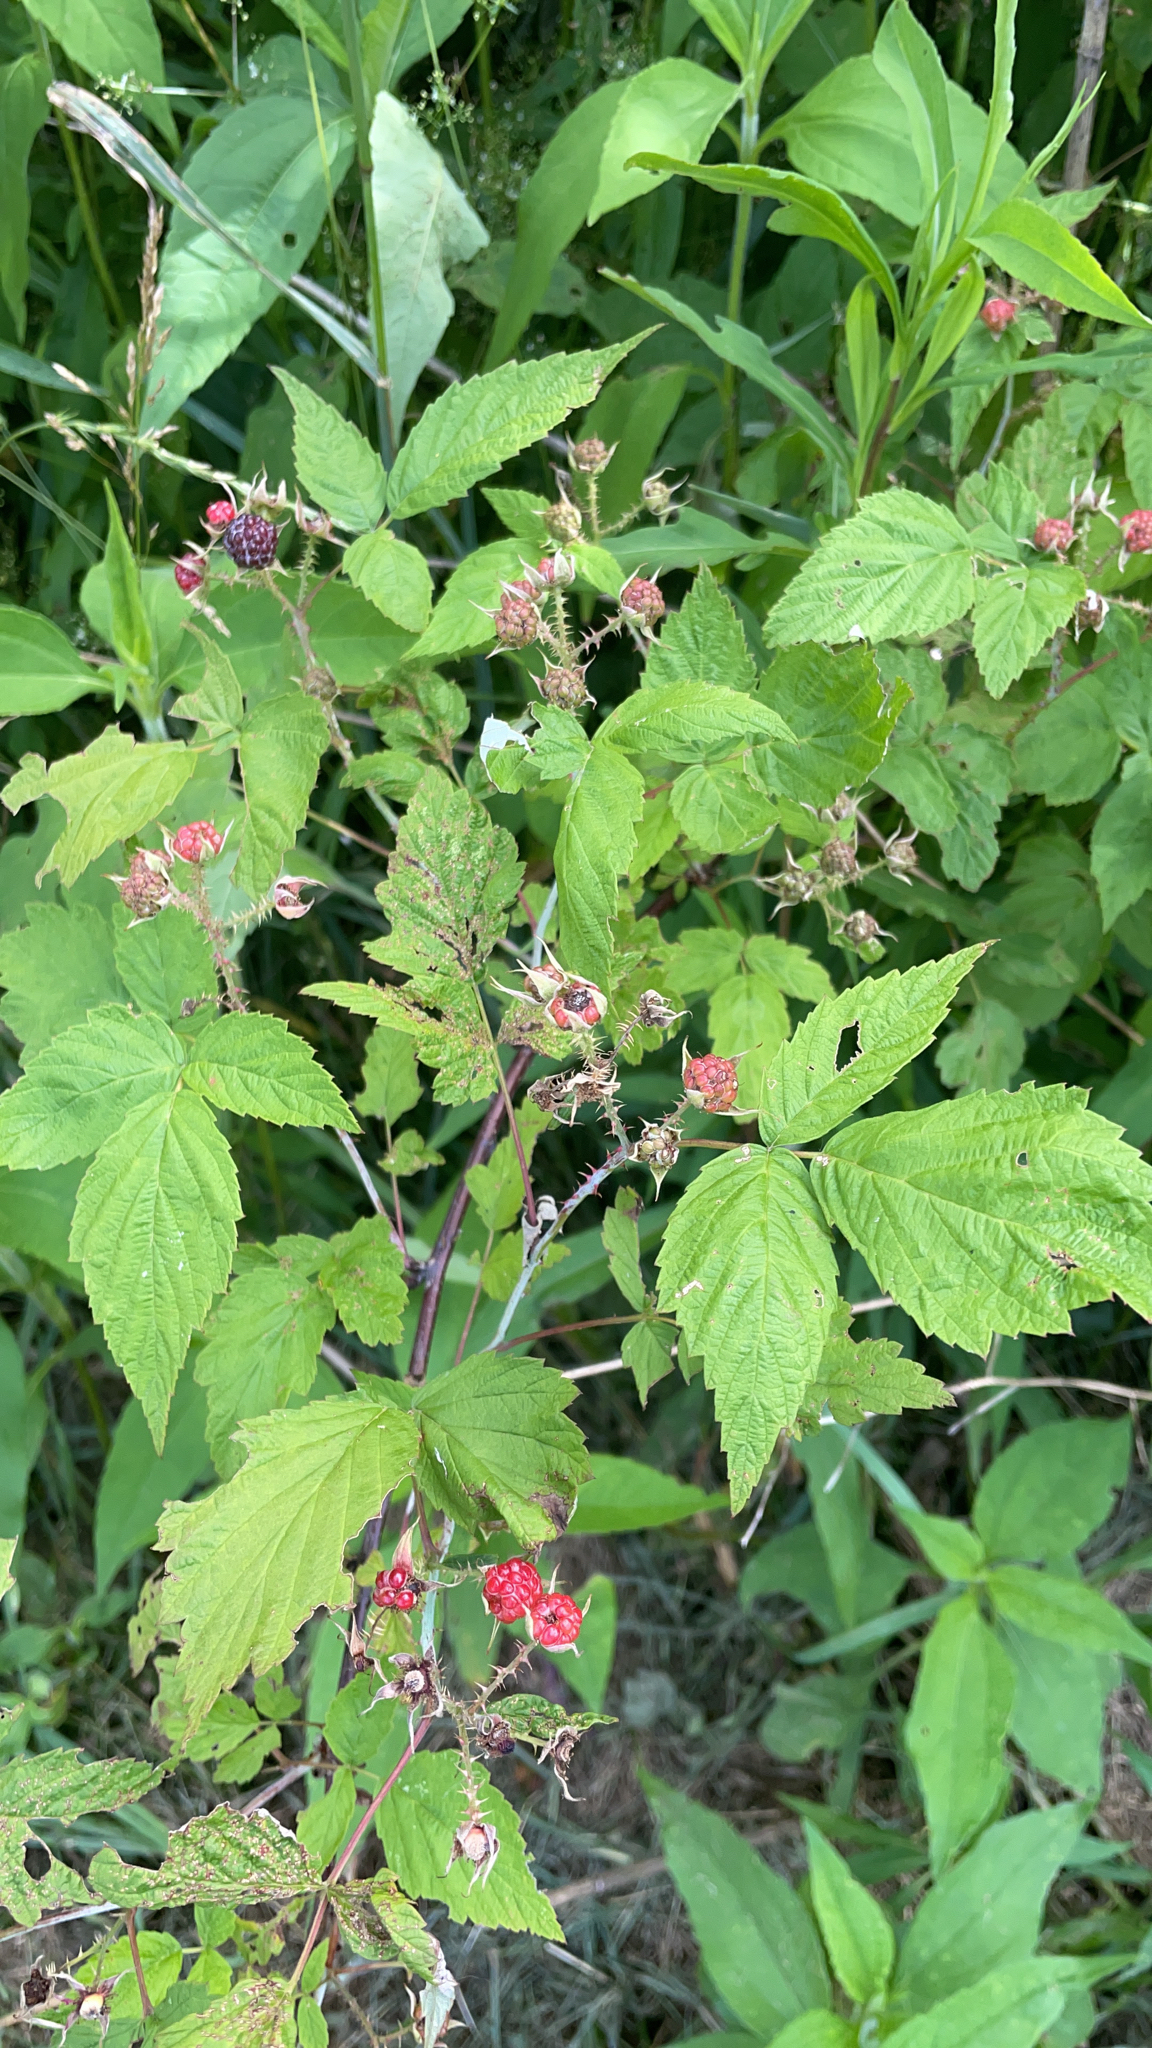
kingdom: Plantae
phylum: Tracheophyta
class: Magnoliopsida
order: Rosales
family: Rosaceae
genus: Rubus
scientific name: Rubus occidentalis
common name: Black raspberry
